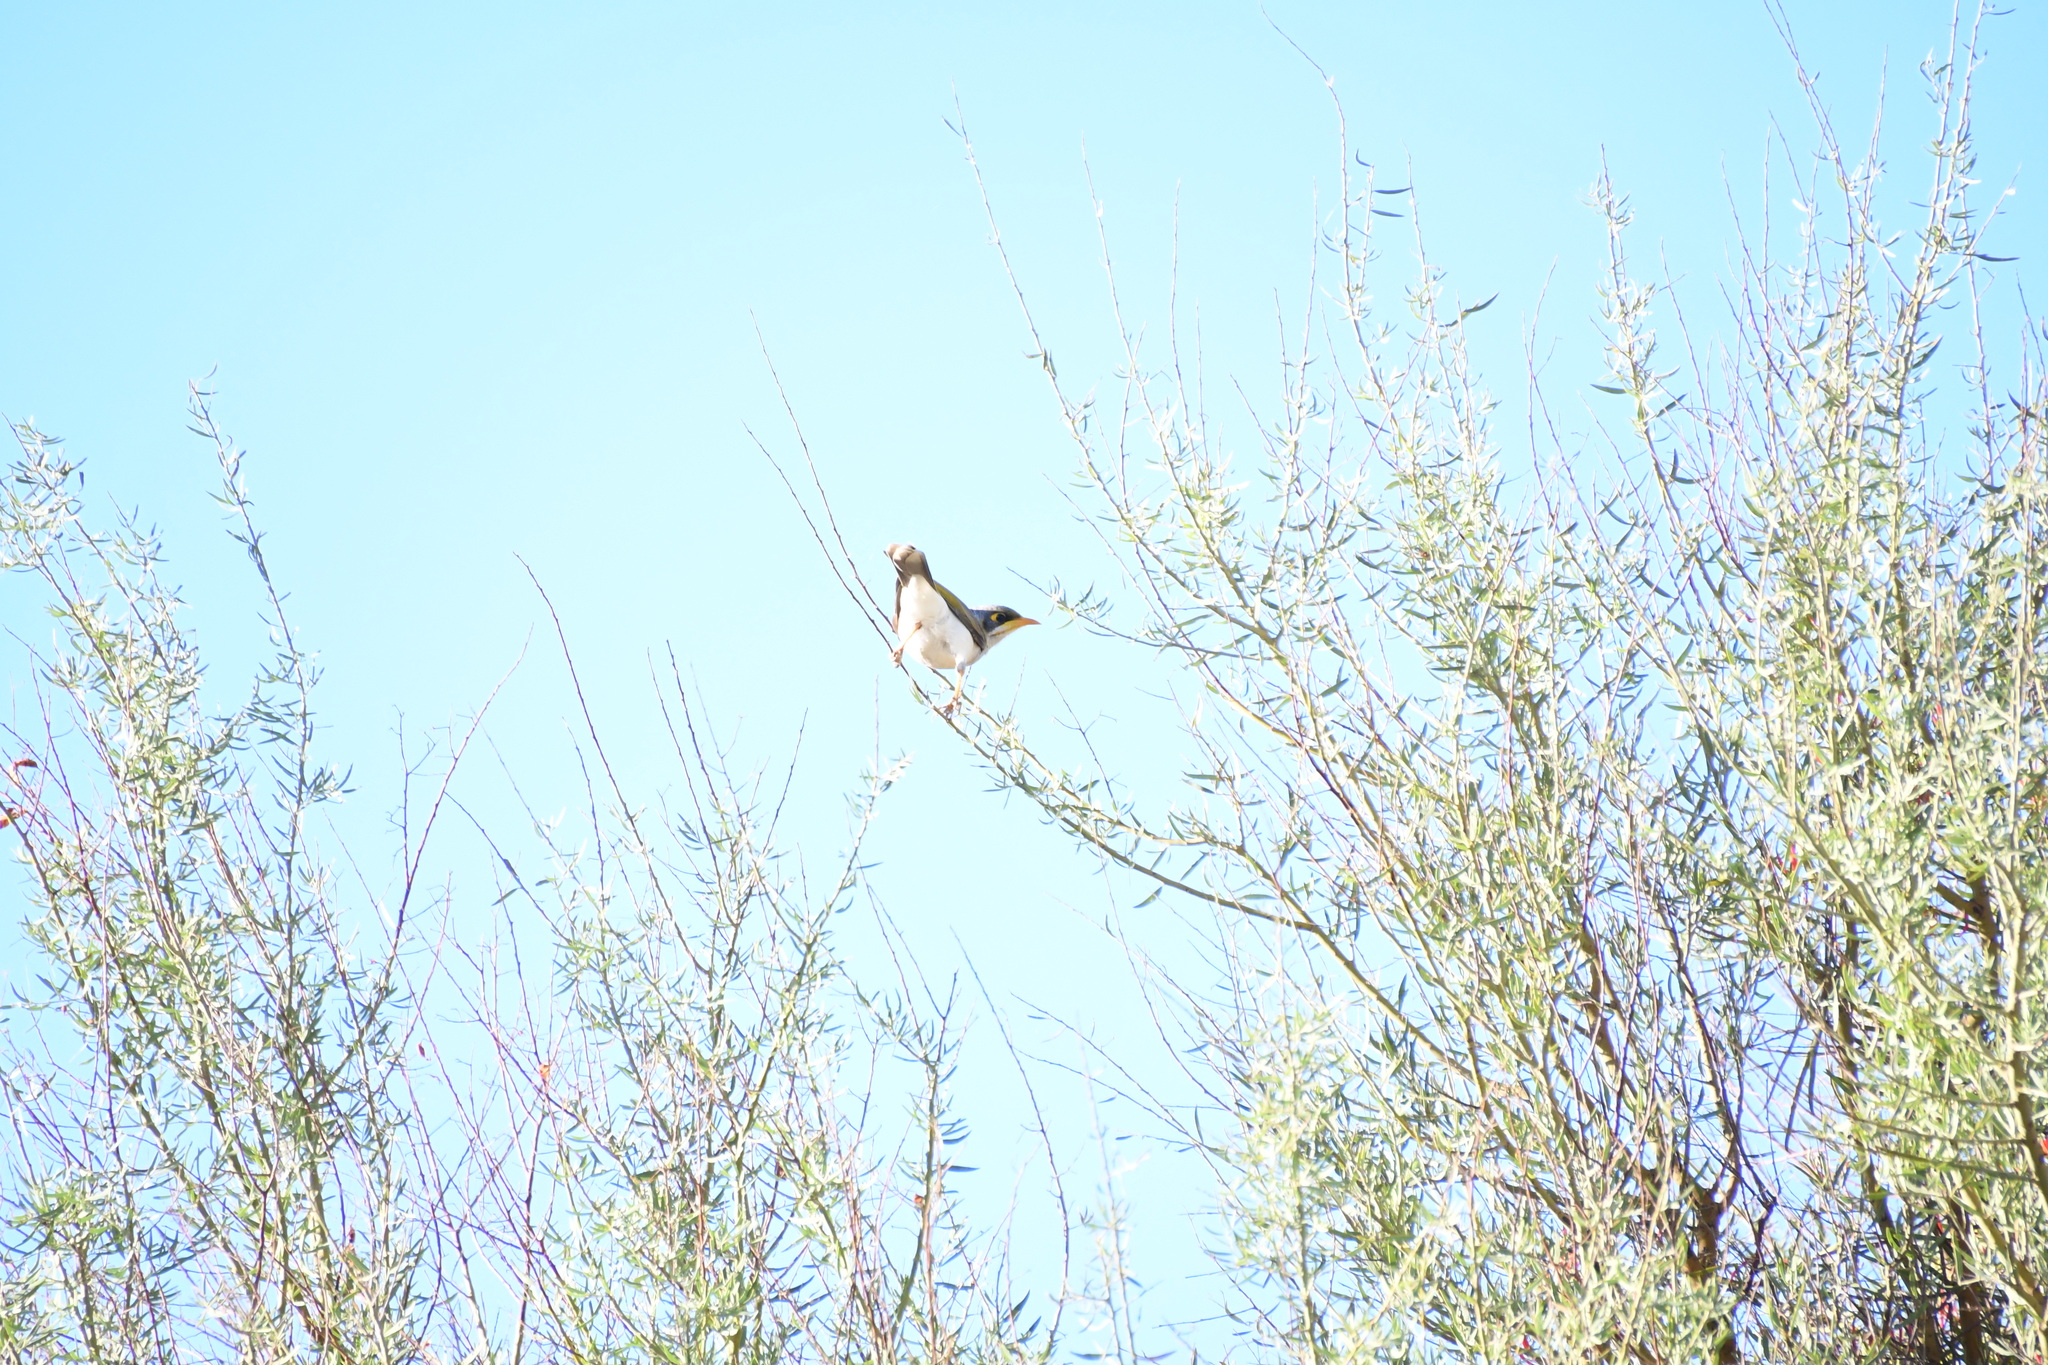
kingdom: Animalia
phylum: Chordata
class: Aves
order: Passeriformes
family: Meliphagidae
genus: Manorina
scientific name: Manorina flavigula
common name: Yellow-throated miner
